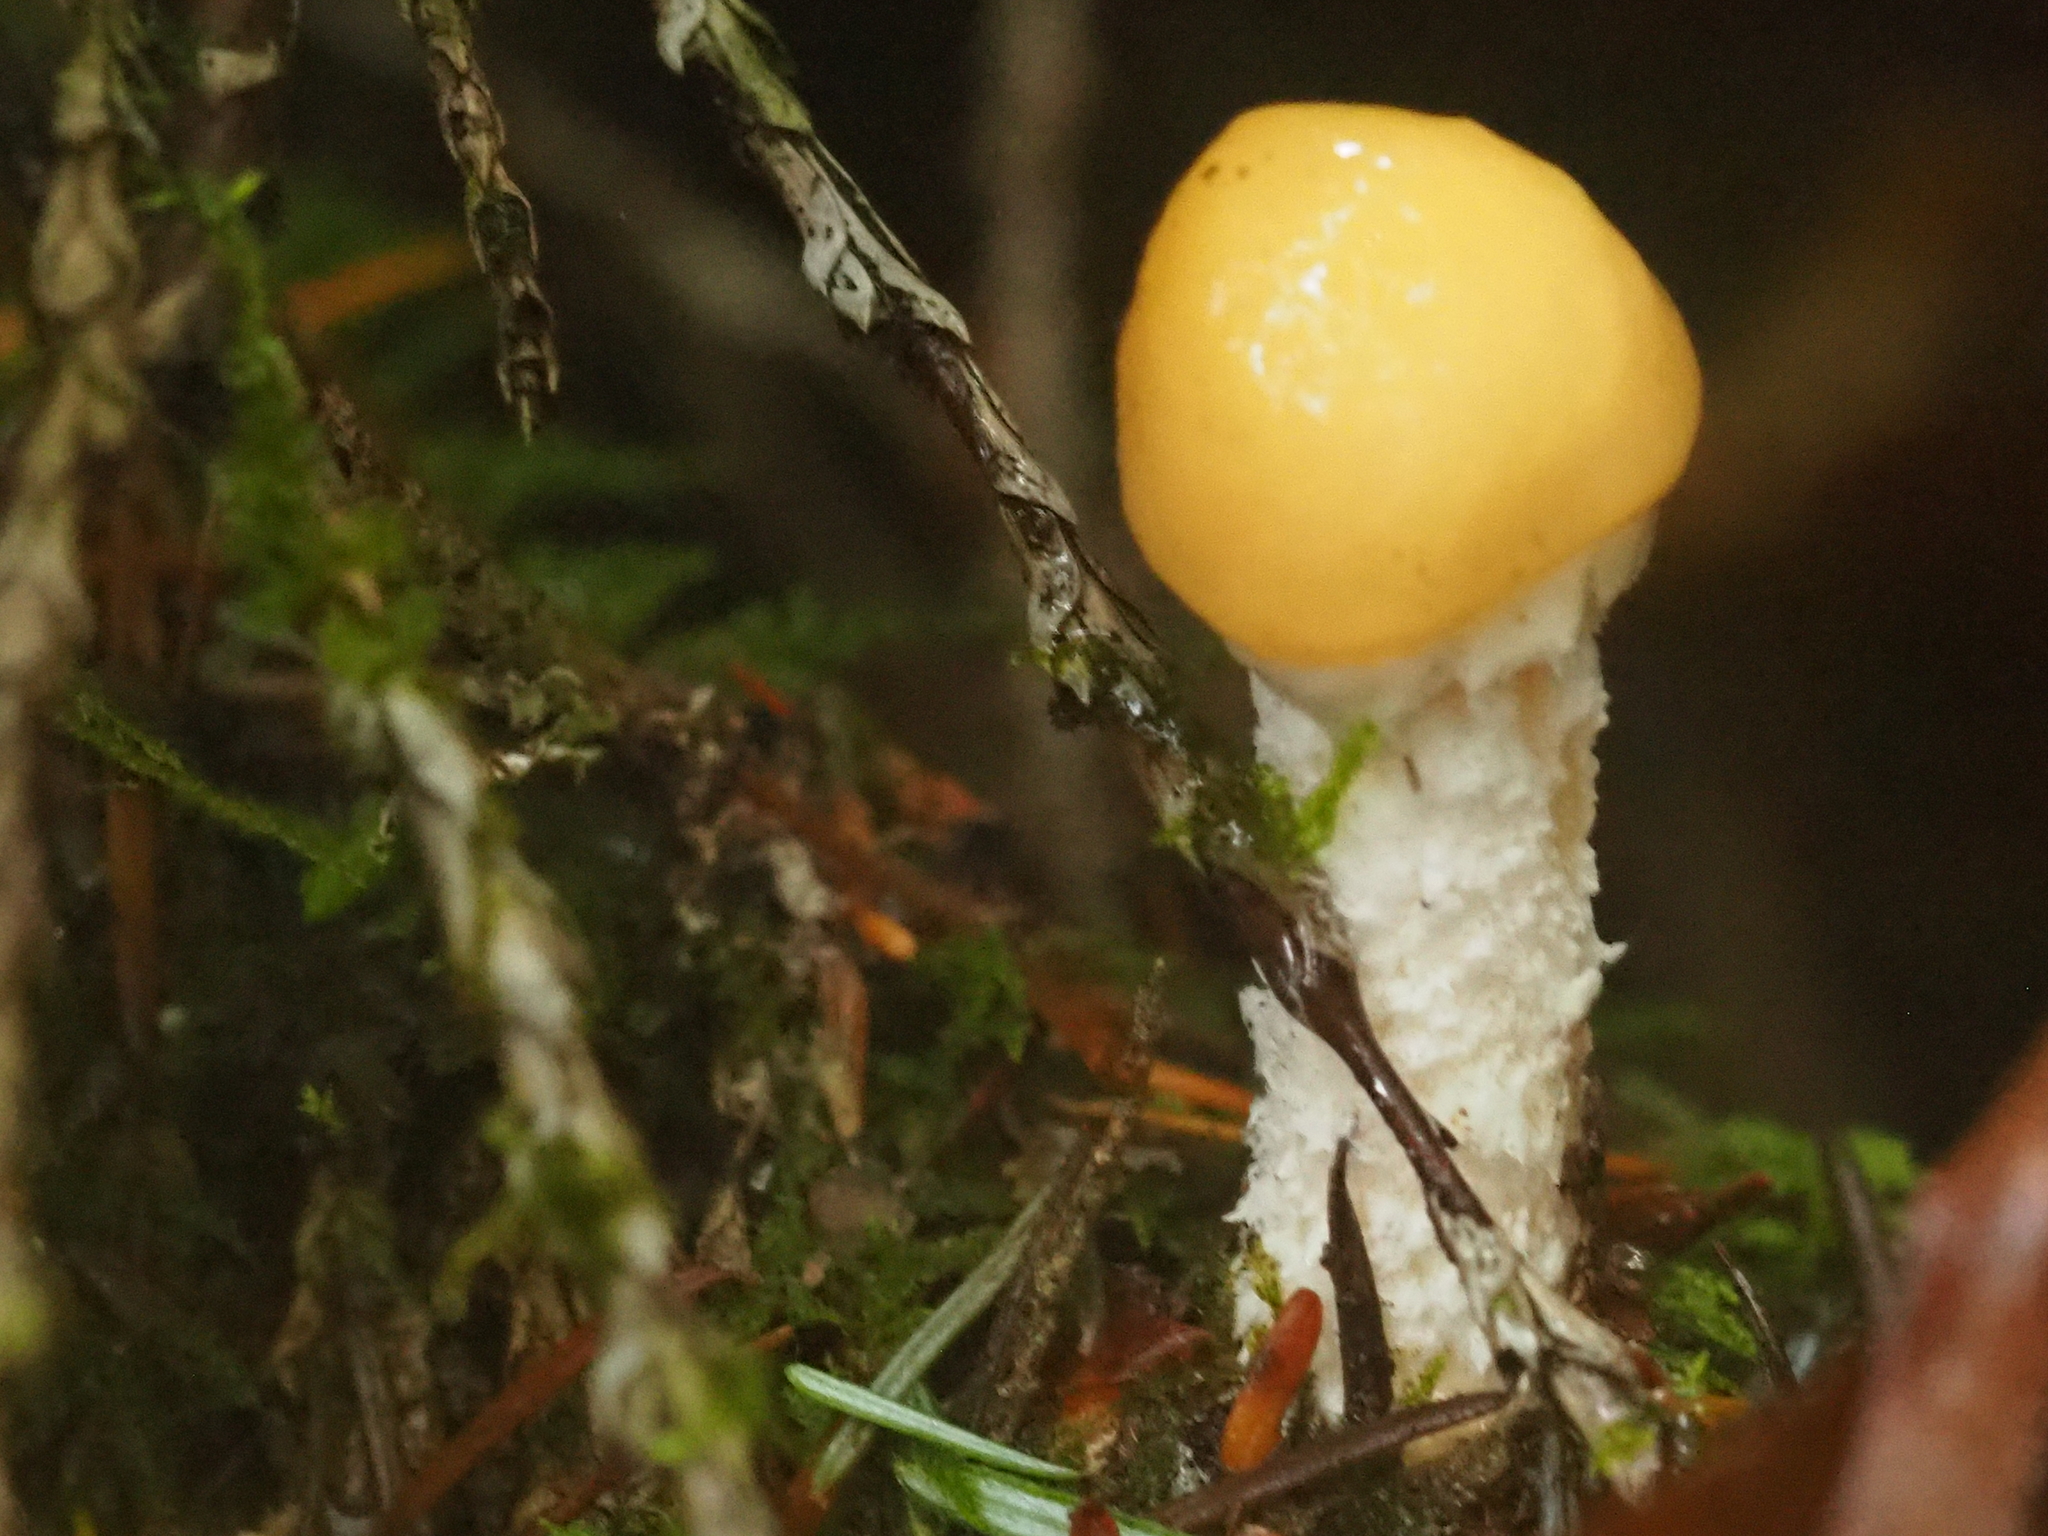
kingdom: Fungi
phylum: Basidiomycota
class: Agaricomycetes
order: Agaricales
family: Strophariaceae
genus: Stropharia
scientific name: Stropharia ambigua
